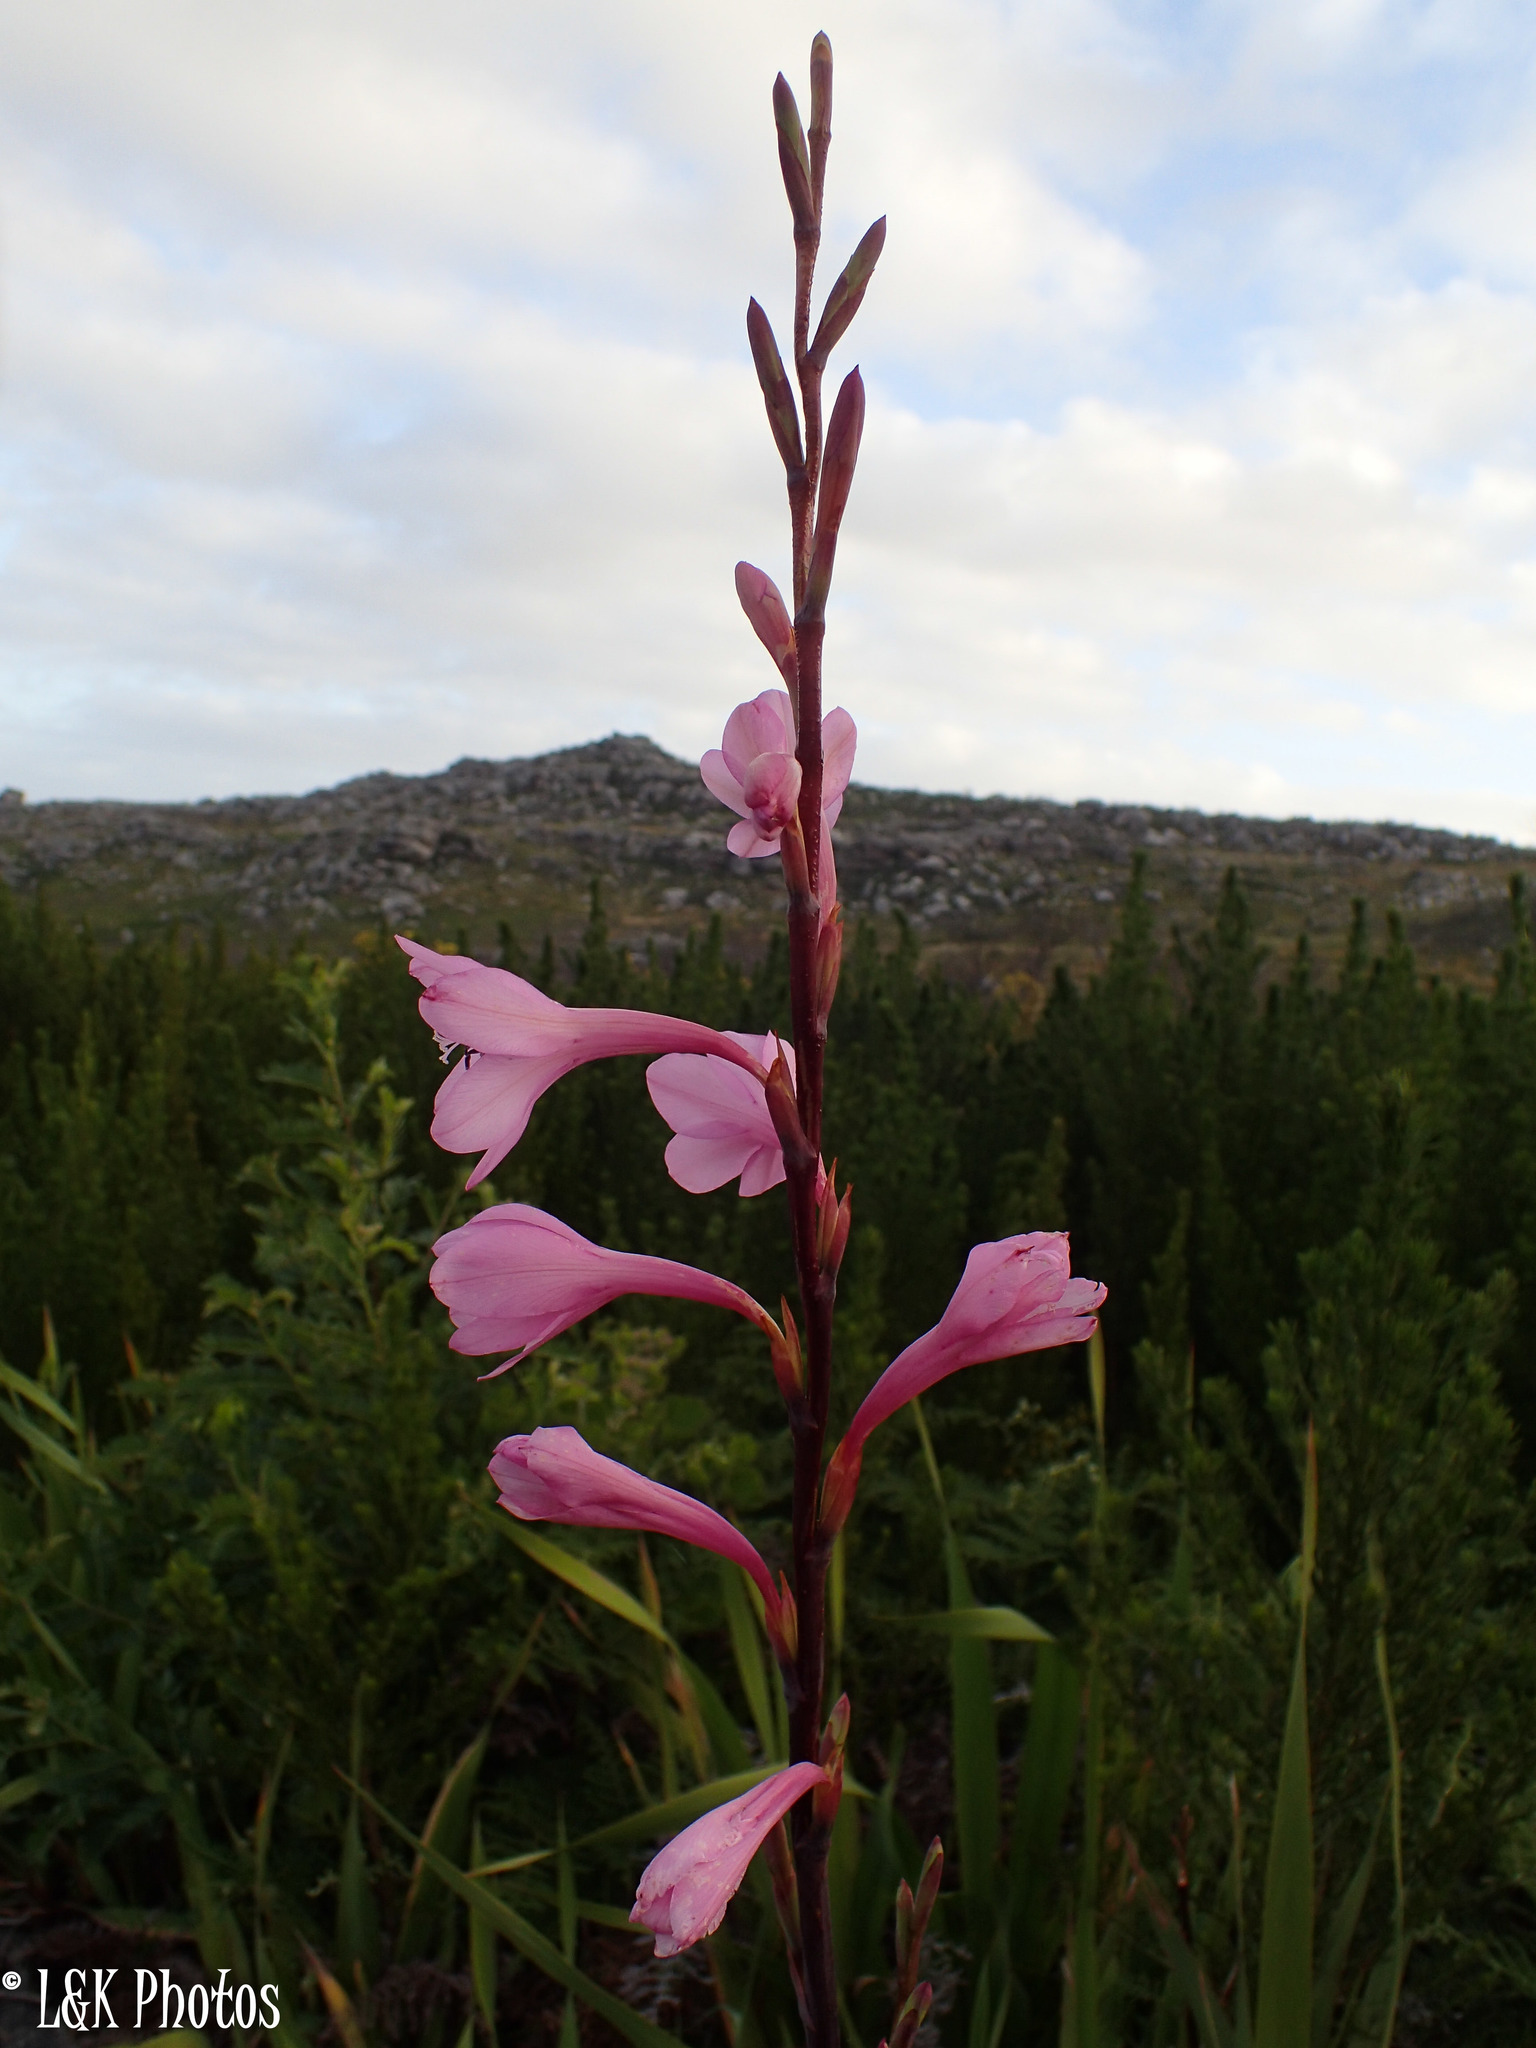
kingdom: Plantae
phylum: Tracheophyta
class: Liliopsida
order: Asparagales
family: Iridaceae
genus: Watsonia
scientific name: Watsonia borbonica
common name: Bugle-lily
